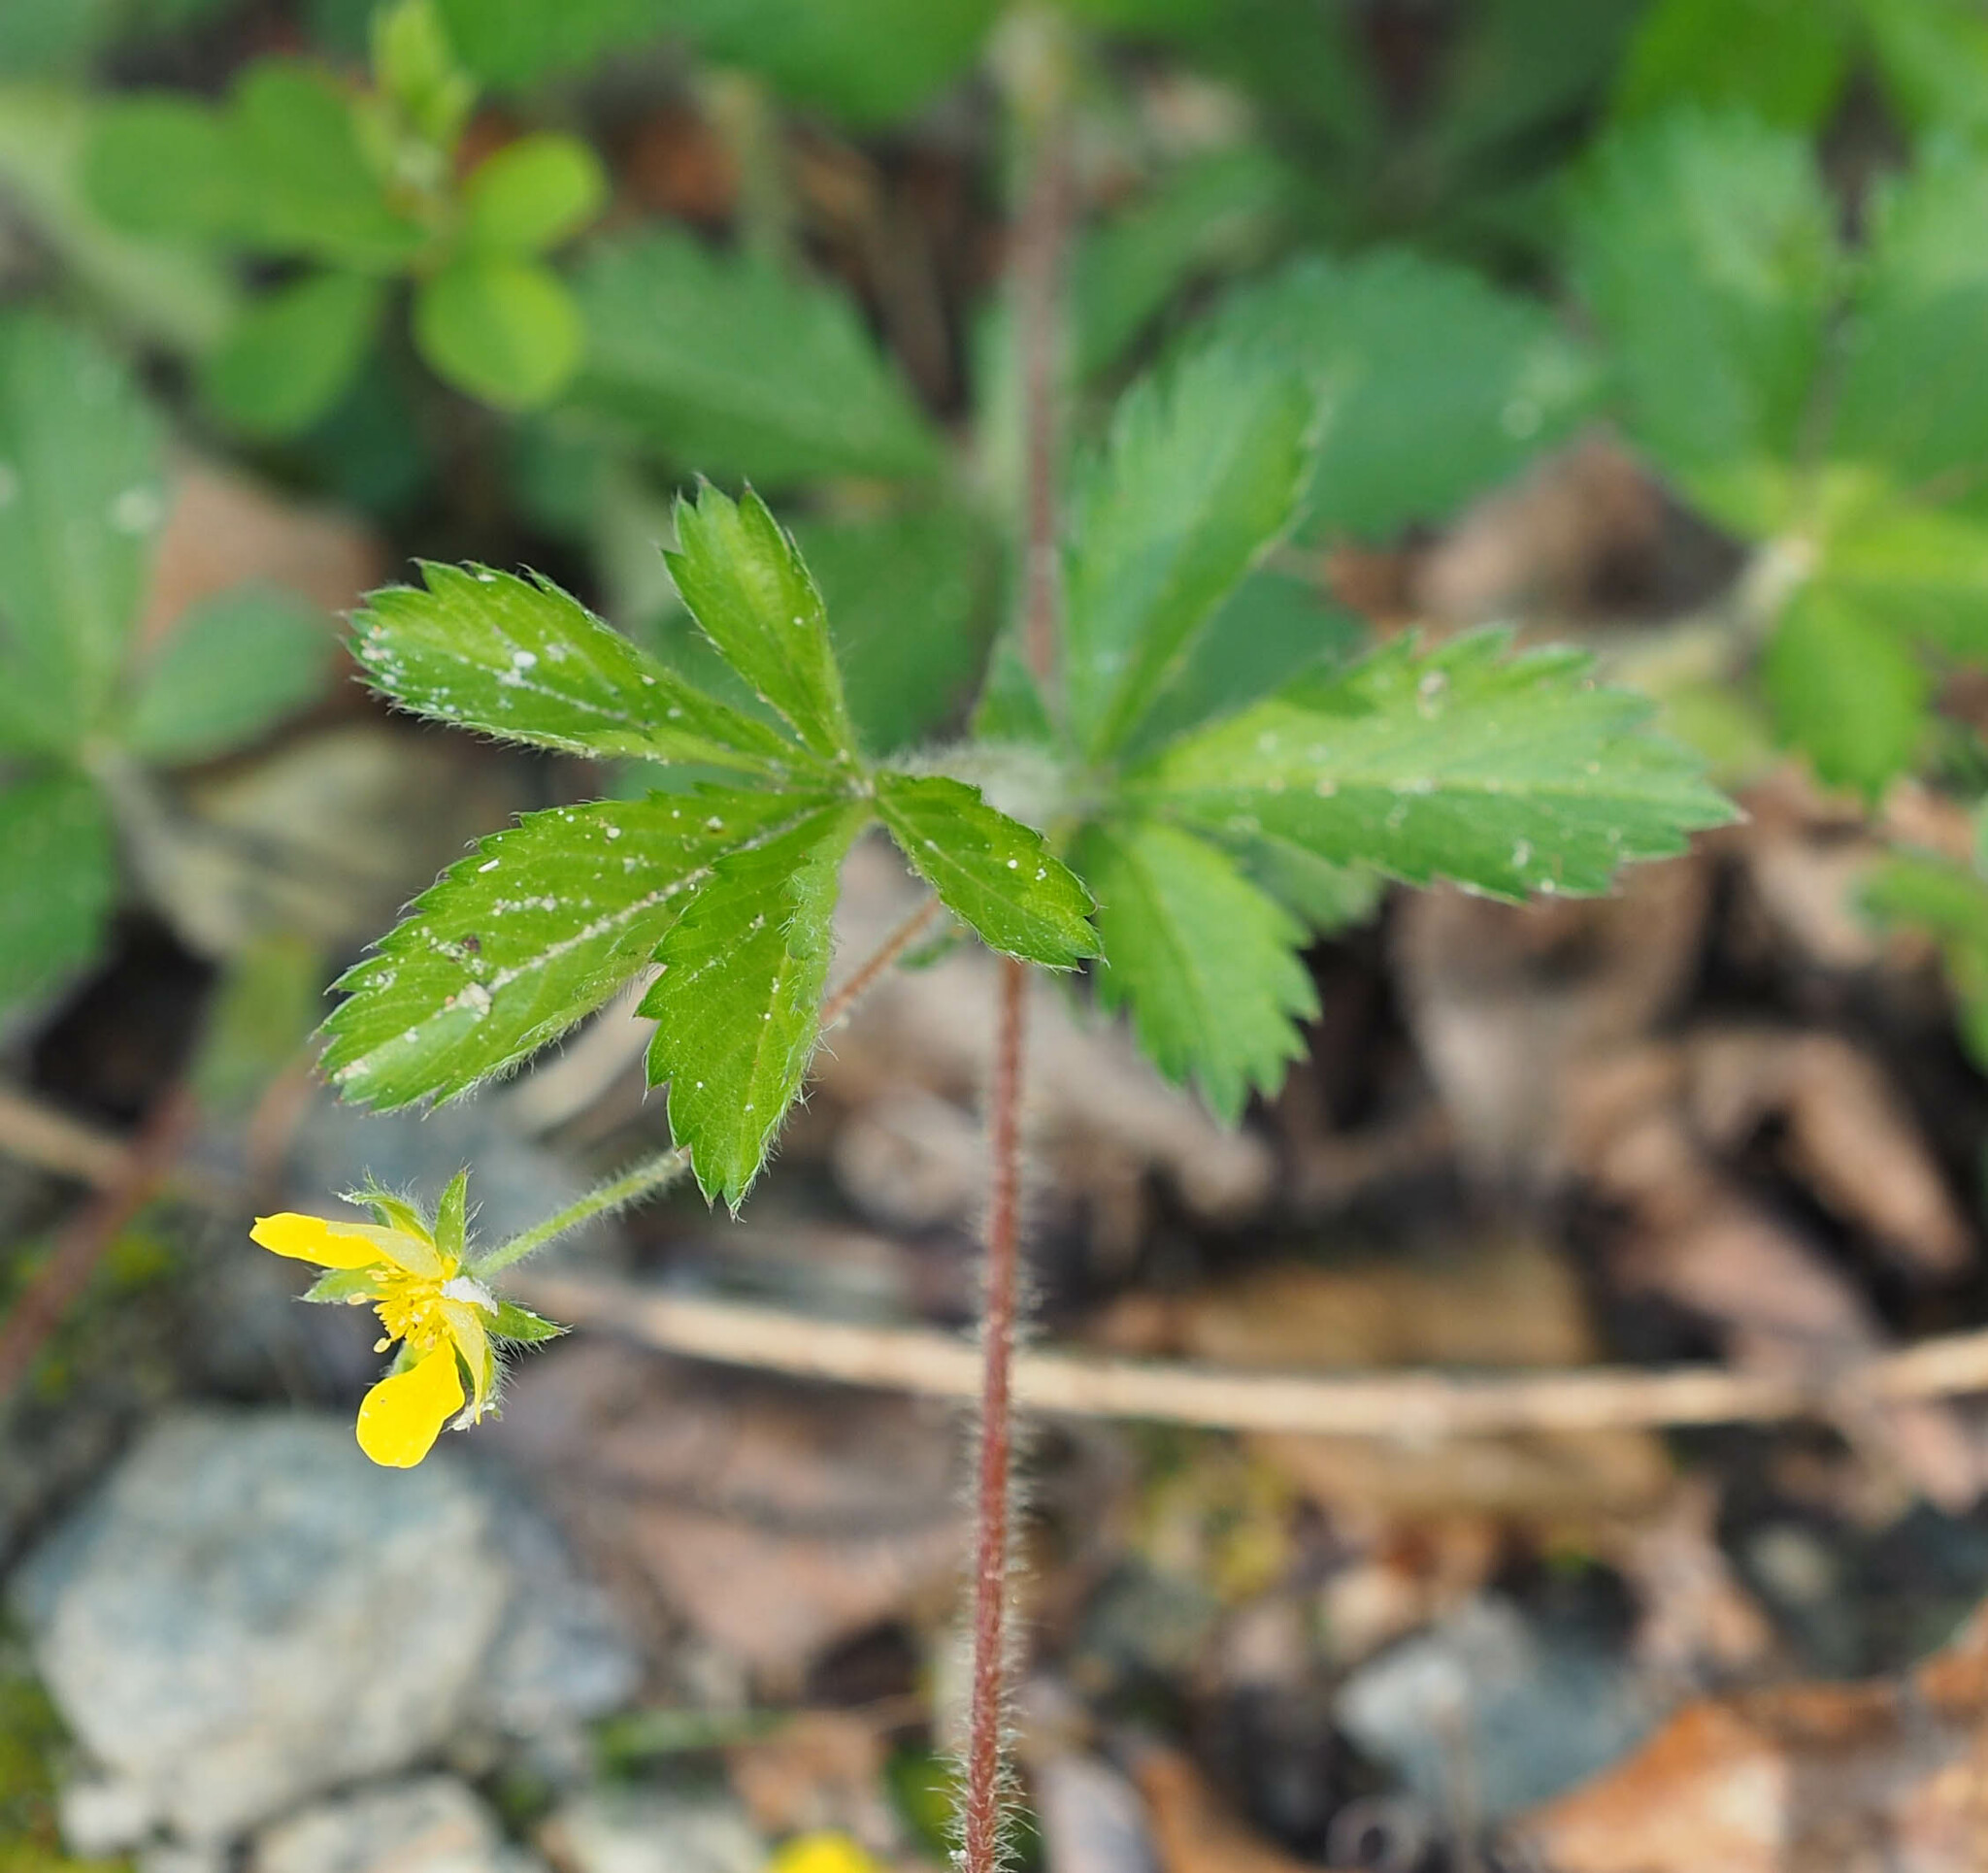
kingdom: Plantae
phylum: Tracheophyta
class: Magnoliopsida
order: Rosales
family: Rosaceae
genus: Potentilla
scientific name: Potentilla simplex
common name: Old field cinquefoil
